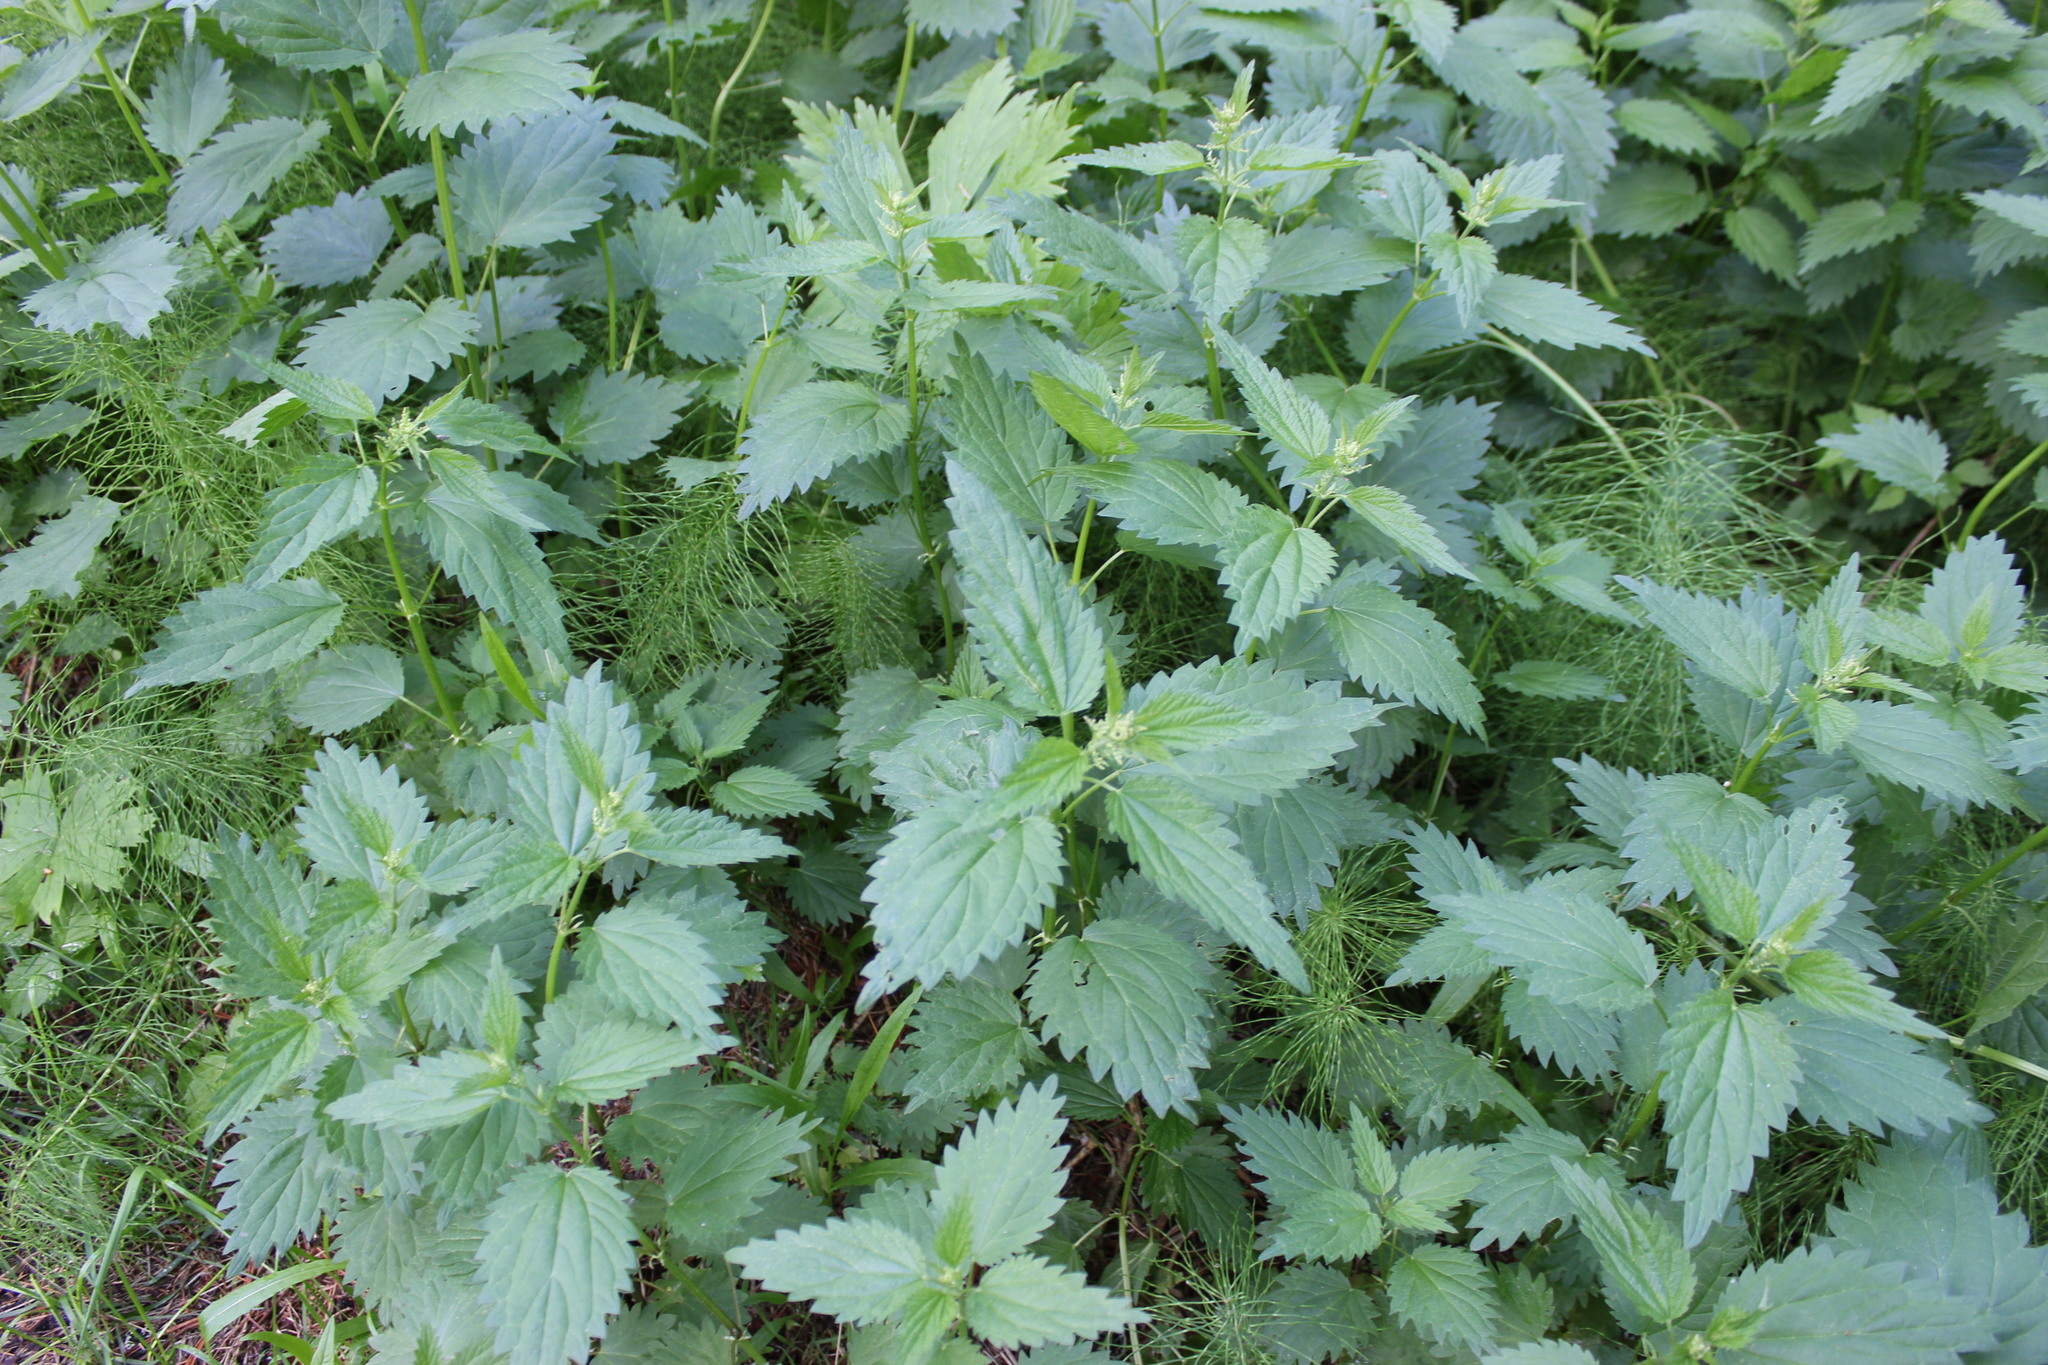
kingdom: Plantae
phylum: Tracheophyta
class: Magnoliopsida
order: Rosales
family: Urticaceae
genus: Urtica
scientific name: Urtica dioica
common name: Common nettle
